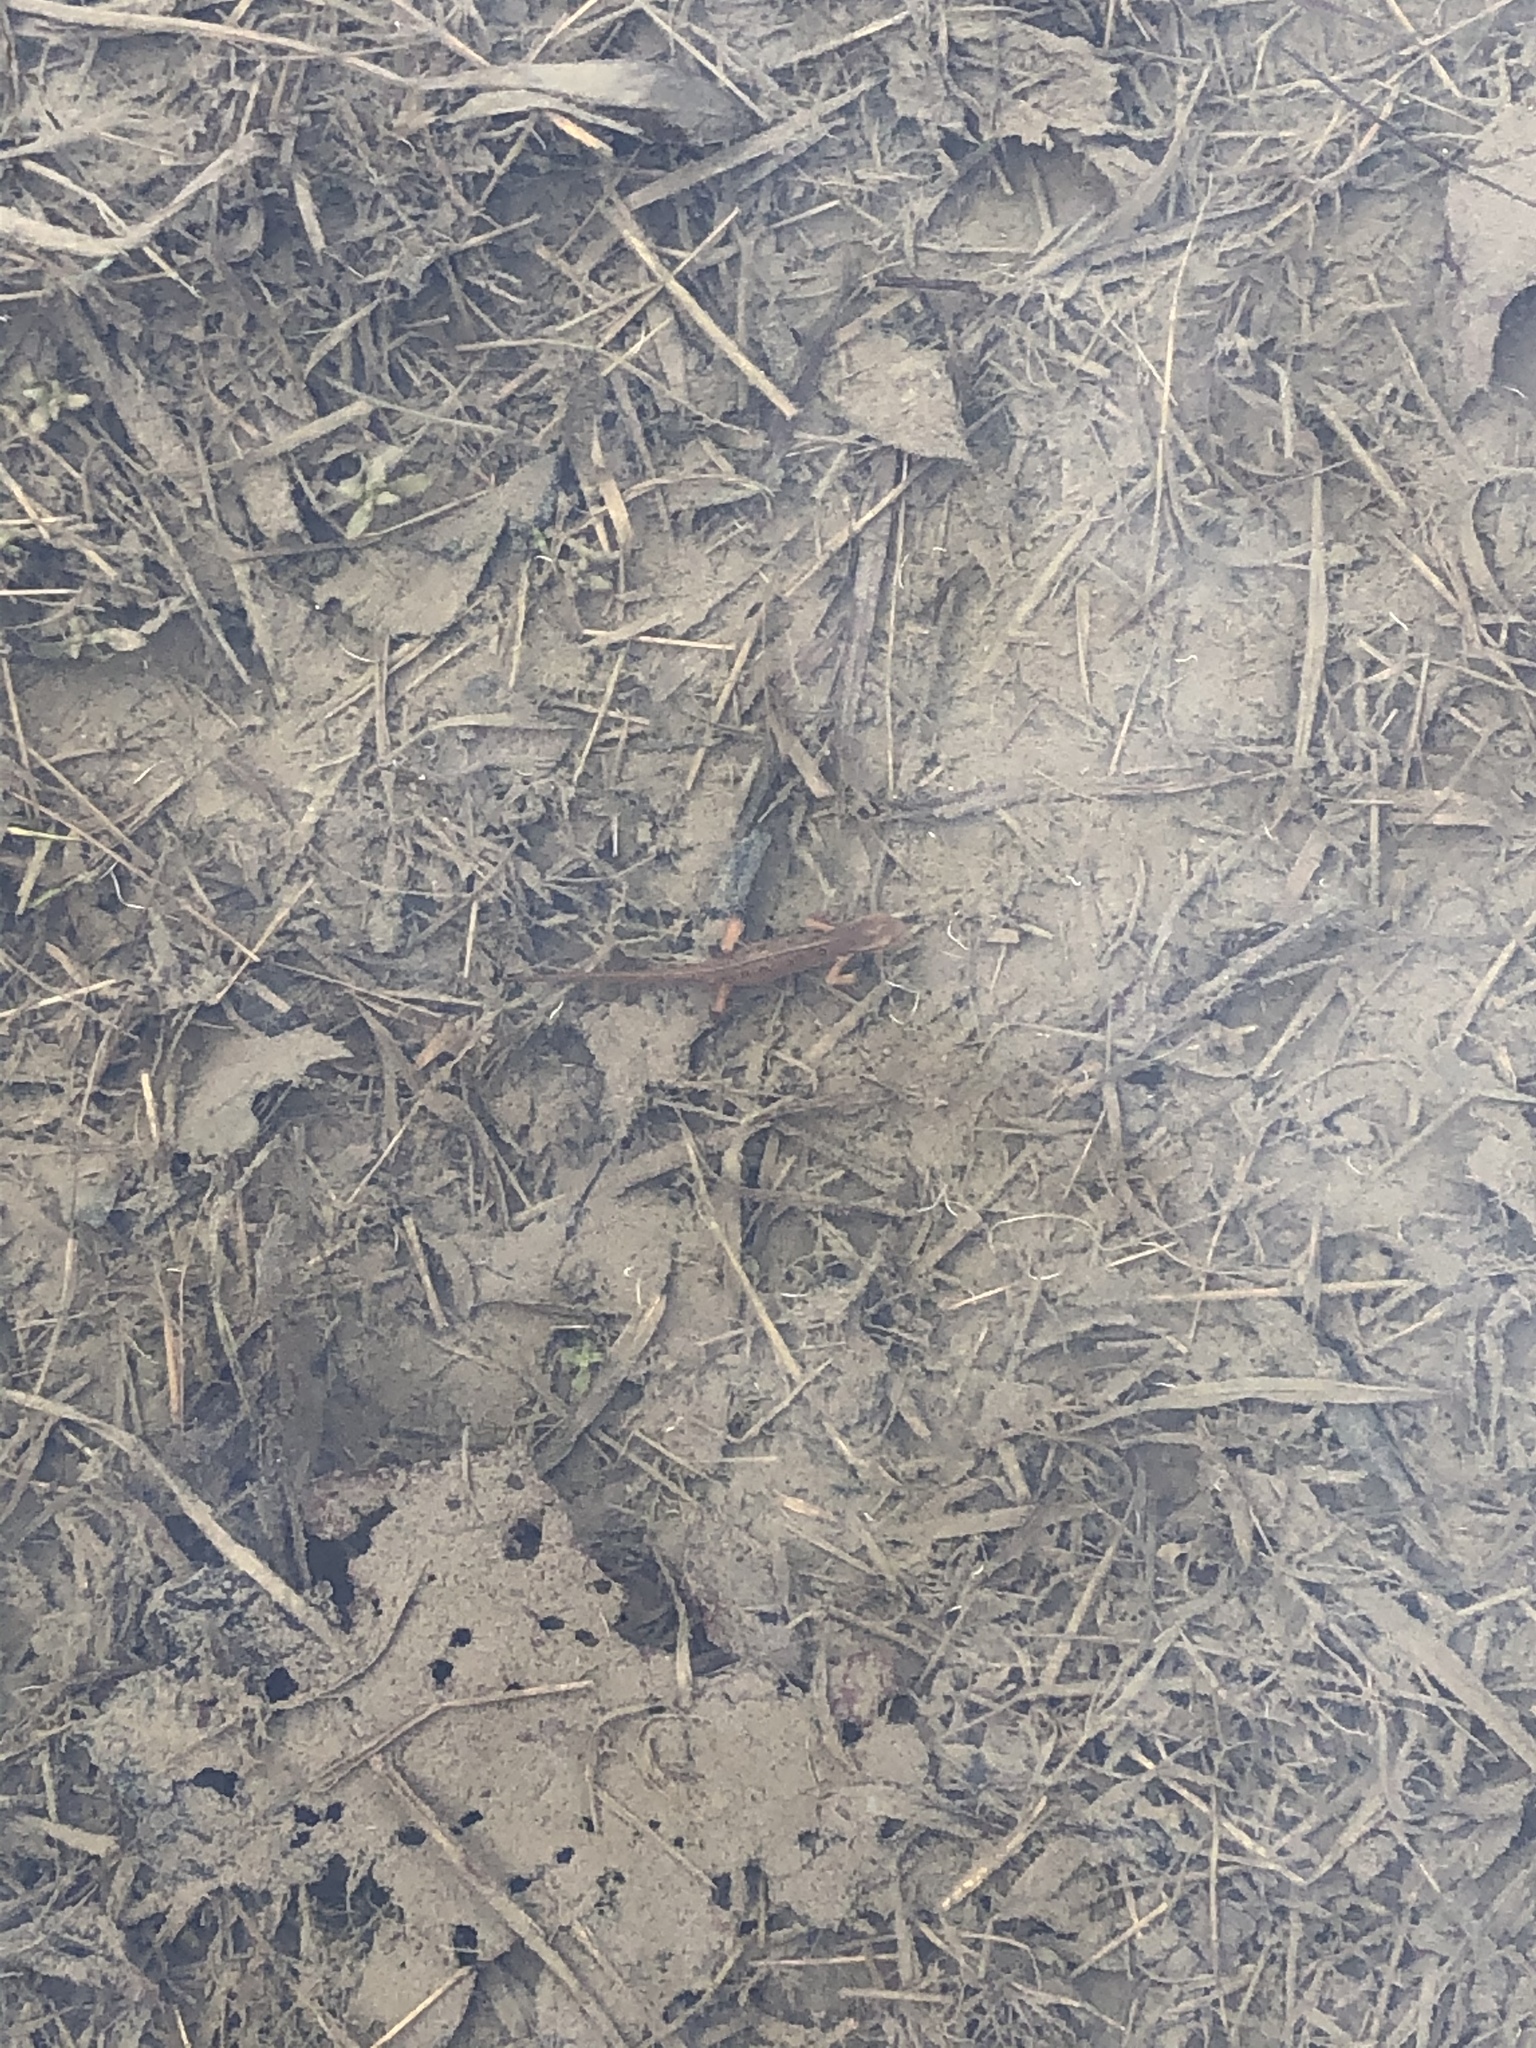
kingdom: Animalia
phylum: Chordata
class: Amphibia
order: Caudata
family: Salamandridae
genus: Notophthalmus
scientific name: Notophthalmus viridescens
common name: Eastern newt
